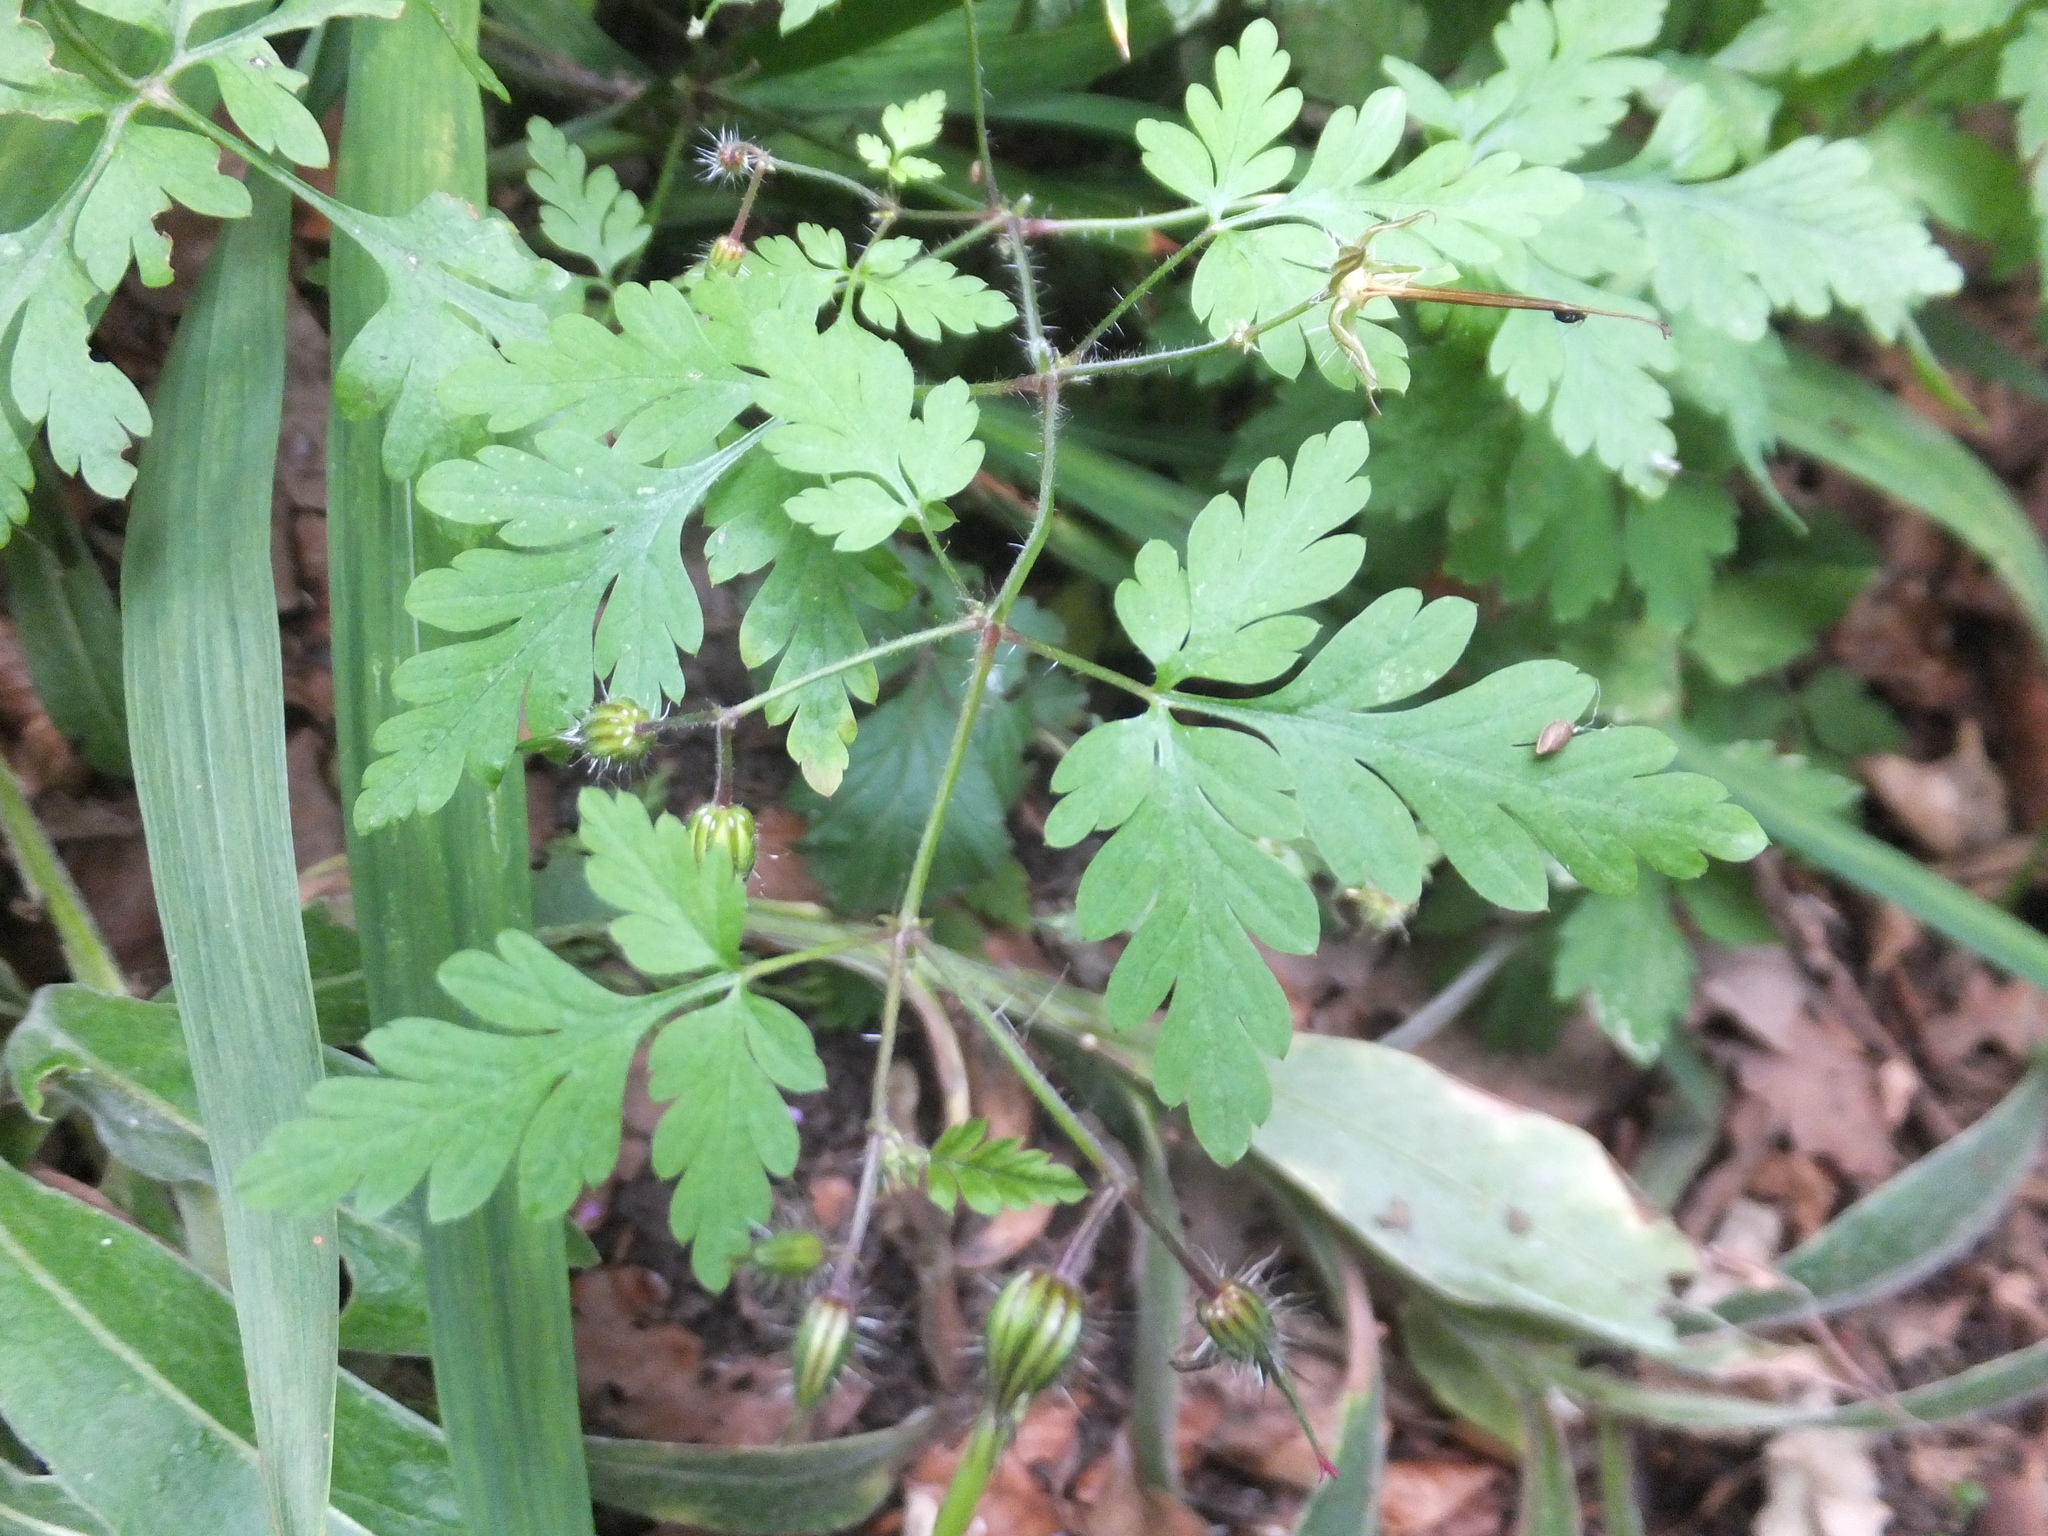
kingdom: Plantae
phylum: Tracheophyta
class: Magnoliopsida
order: Geraniales
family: Geraniaceae
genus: Geranium
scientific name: Geranium robertianum
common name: Herb-robert
